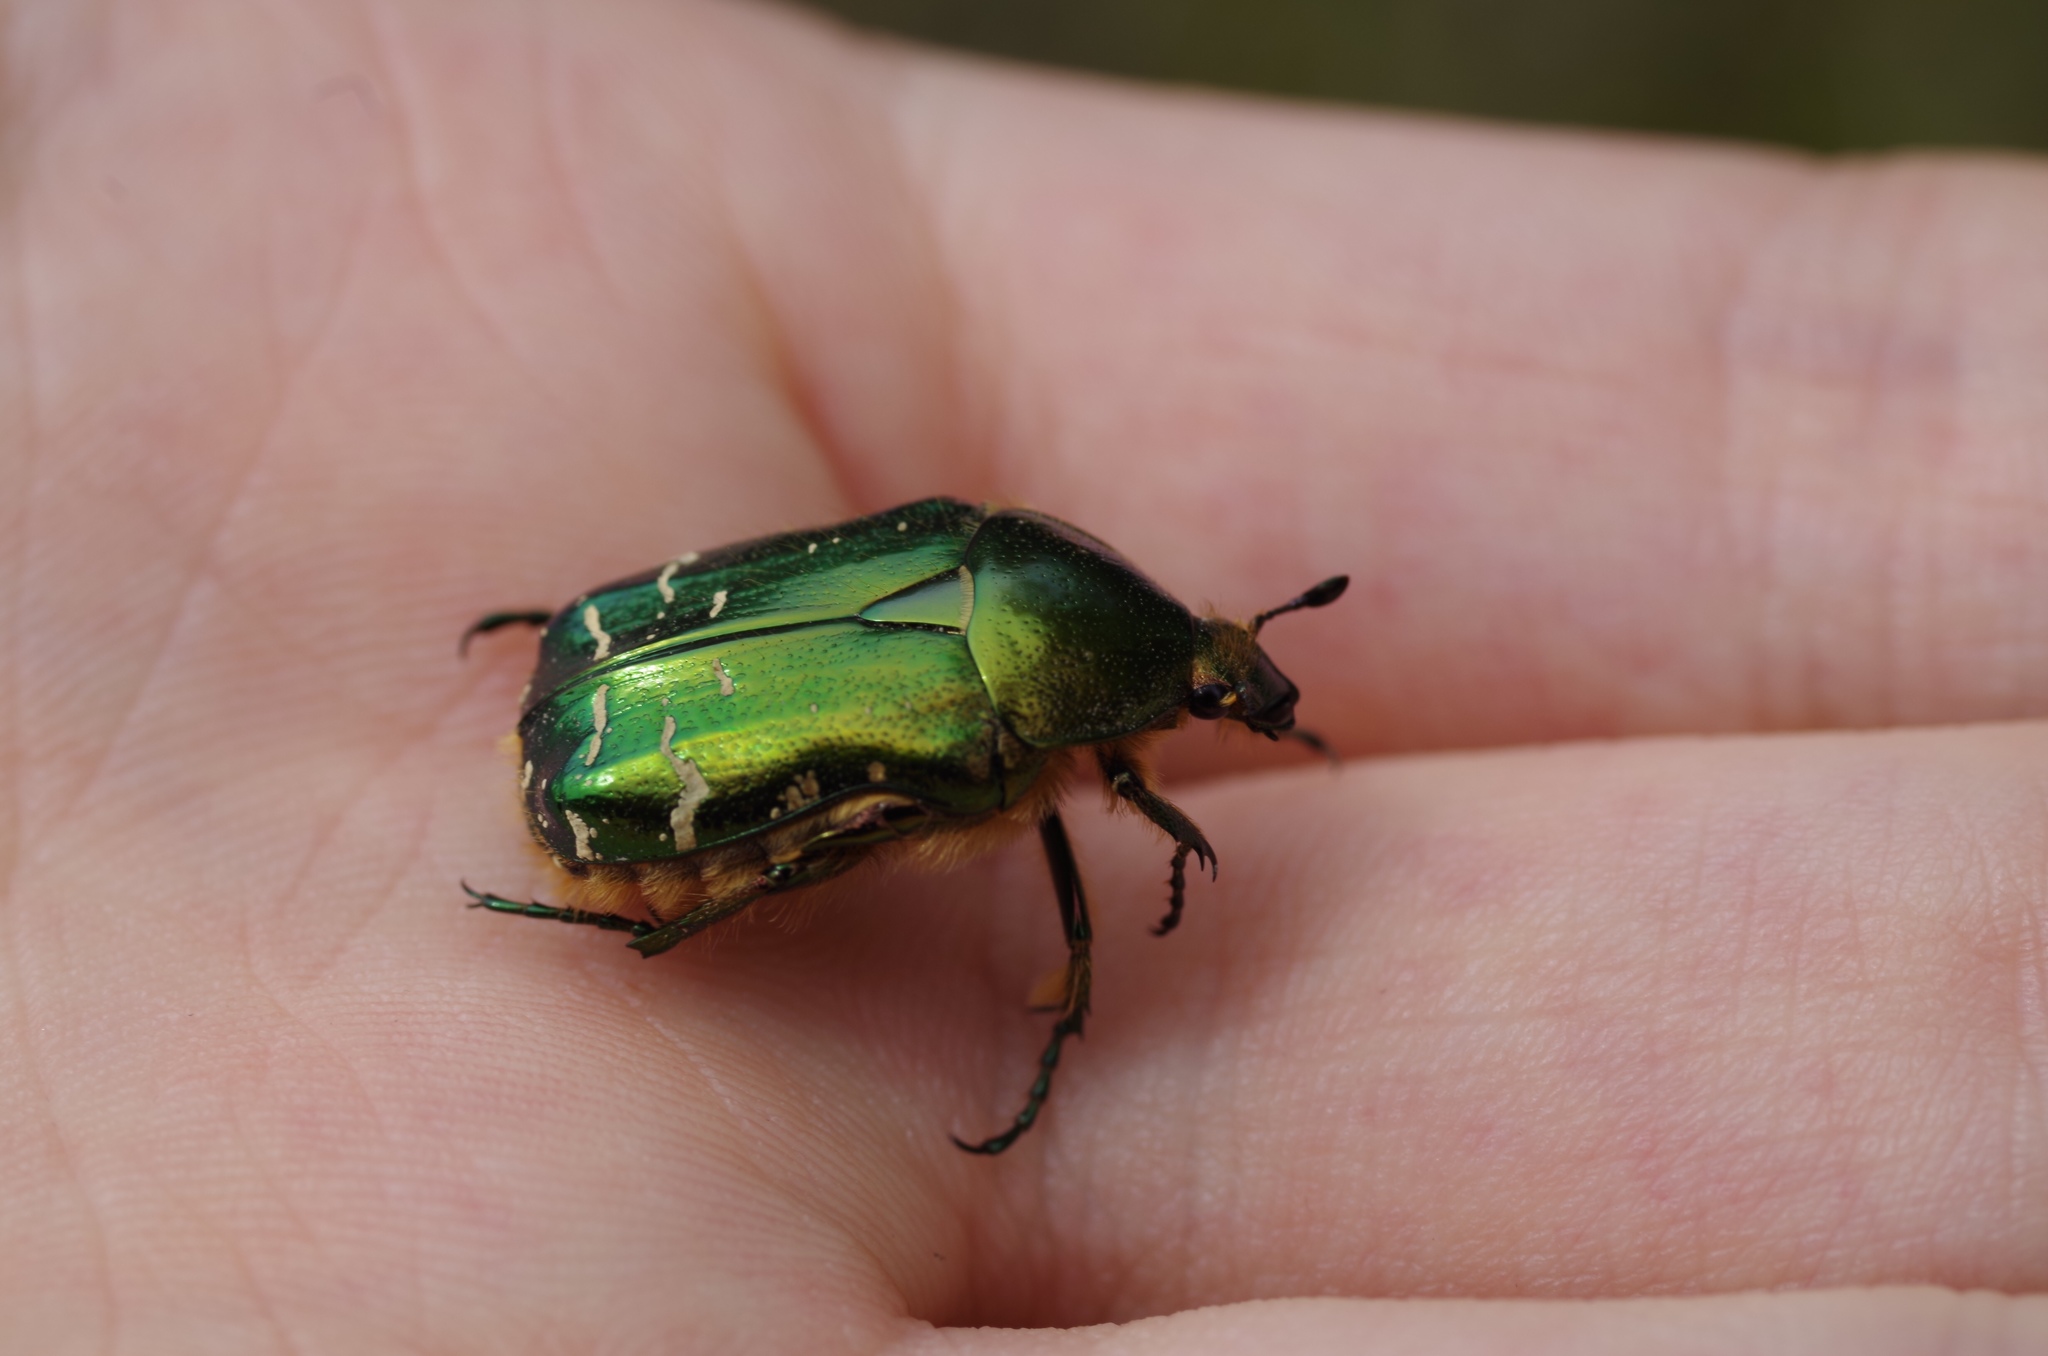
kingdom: Animalia
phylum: Arthropoda
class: Insecta
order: Coleoptera
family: Scarabaeidae
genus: Cetonia
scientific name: Cetonia aurata
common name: Rose chafer
